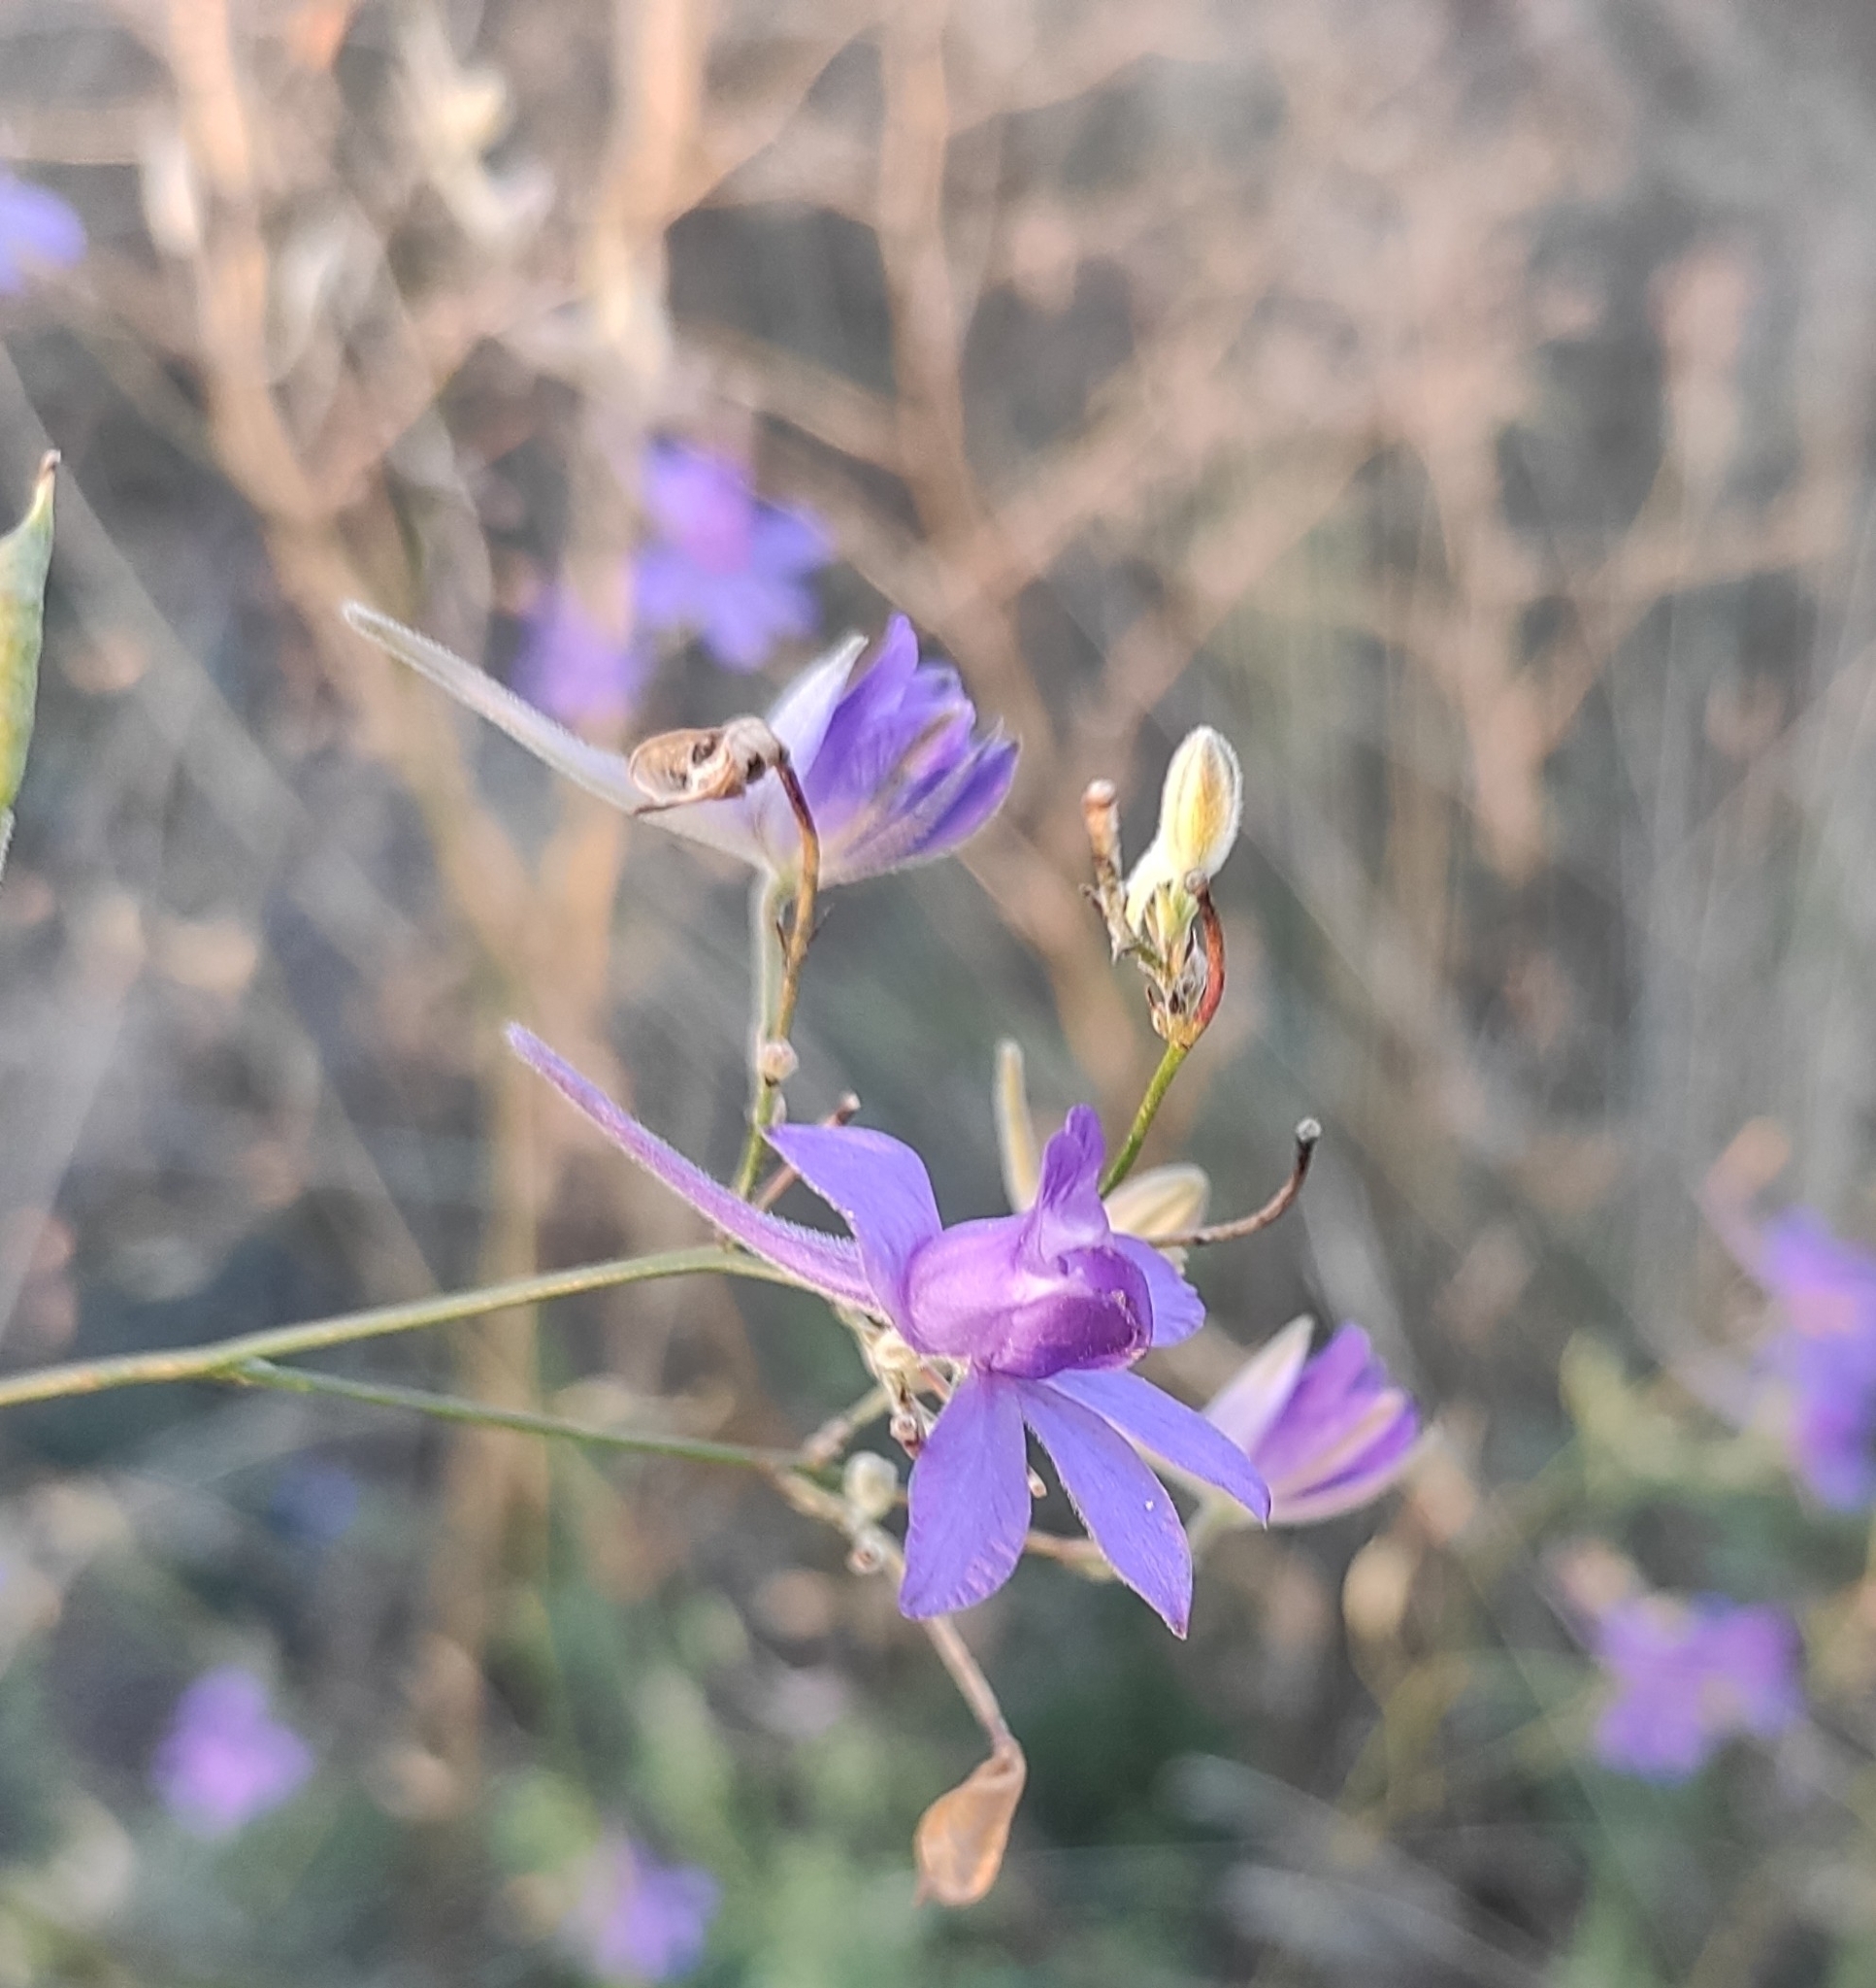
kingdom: Plantae
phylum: Tracheophyta
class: Magnoliopsida
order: Ranunculales
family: Ranunculaceae
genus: Delphinium
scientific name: Delphinium consolida
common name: Branching larkspur
